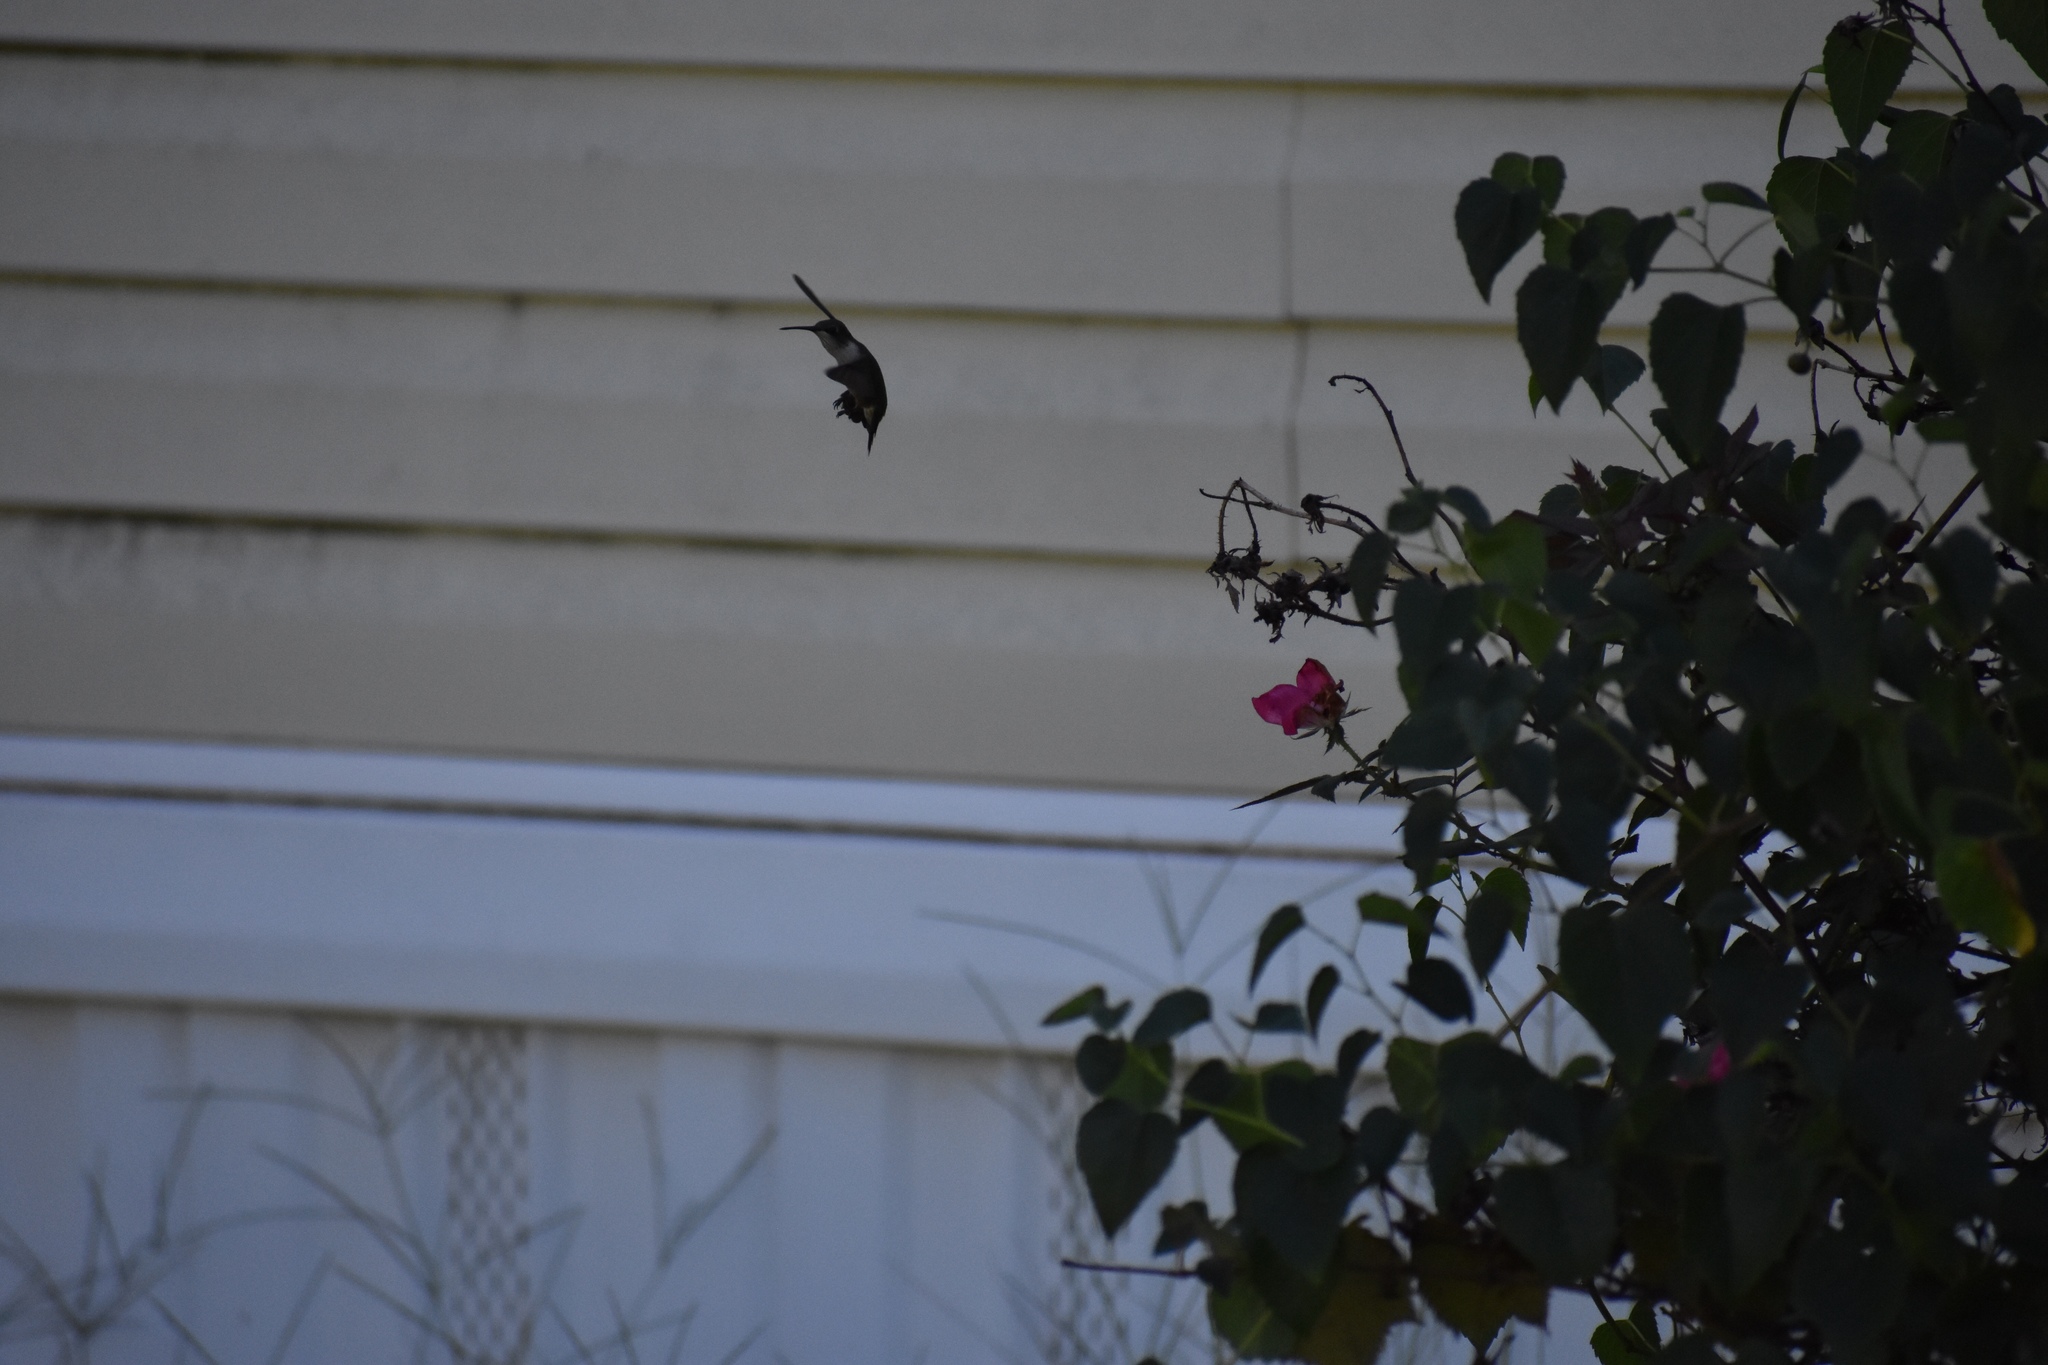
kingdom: Animalia
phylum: Chordata
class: Aves
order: Apodiformes
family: Trochilidae
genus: Archilochus
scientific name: Archilochus colubris
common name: Ruby-throated hummingbird
